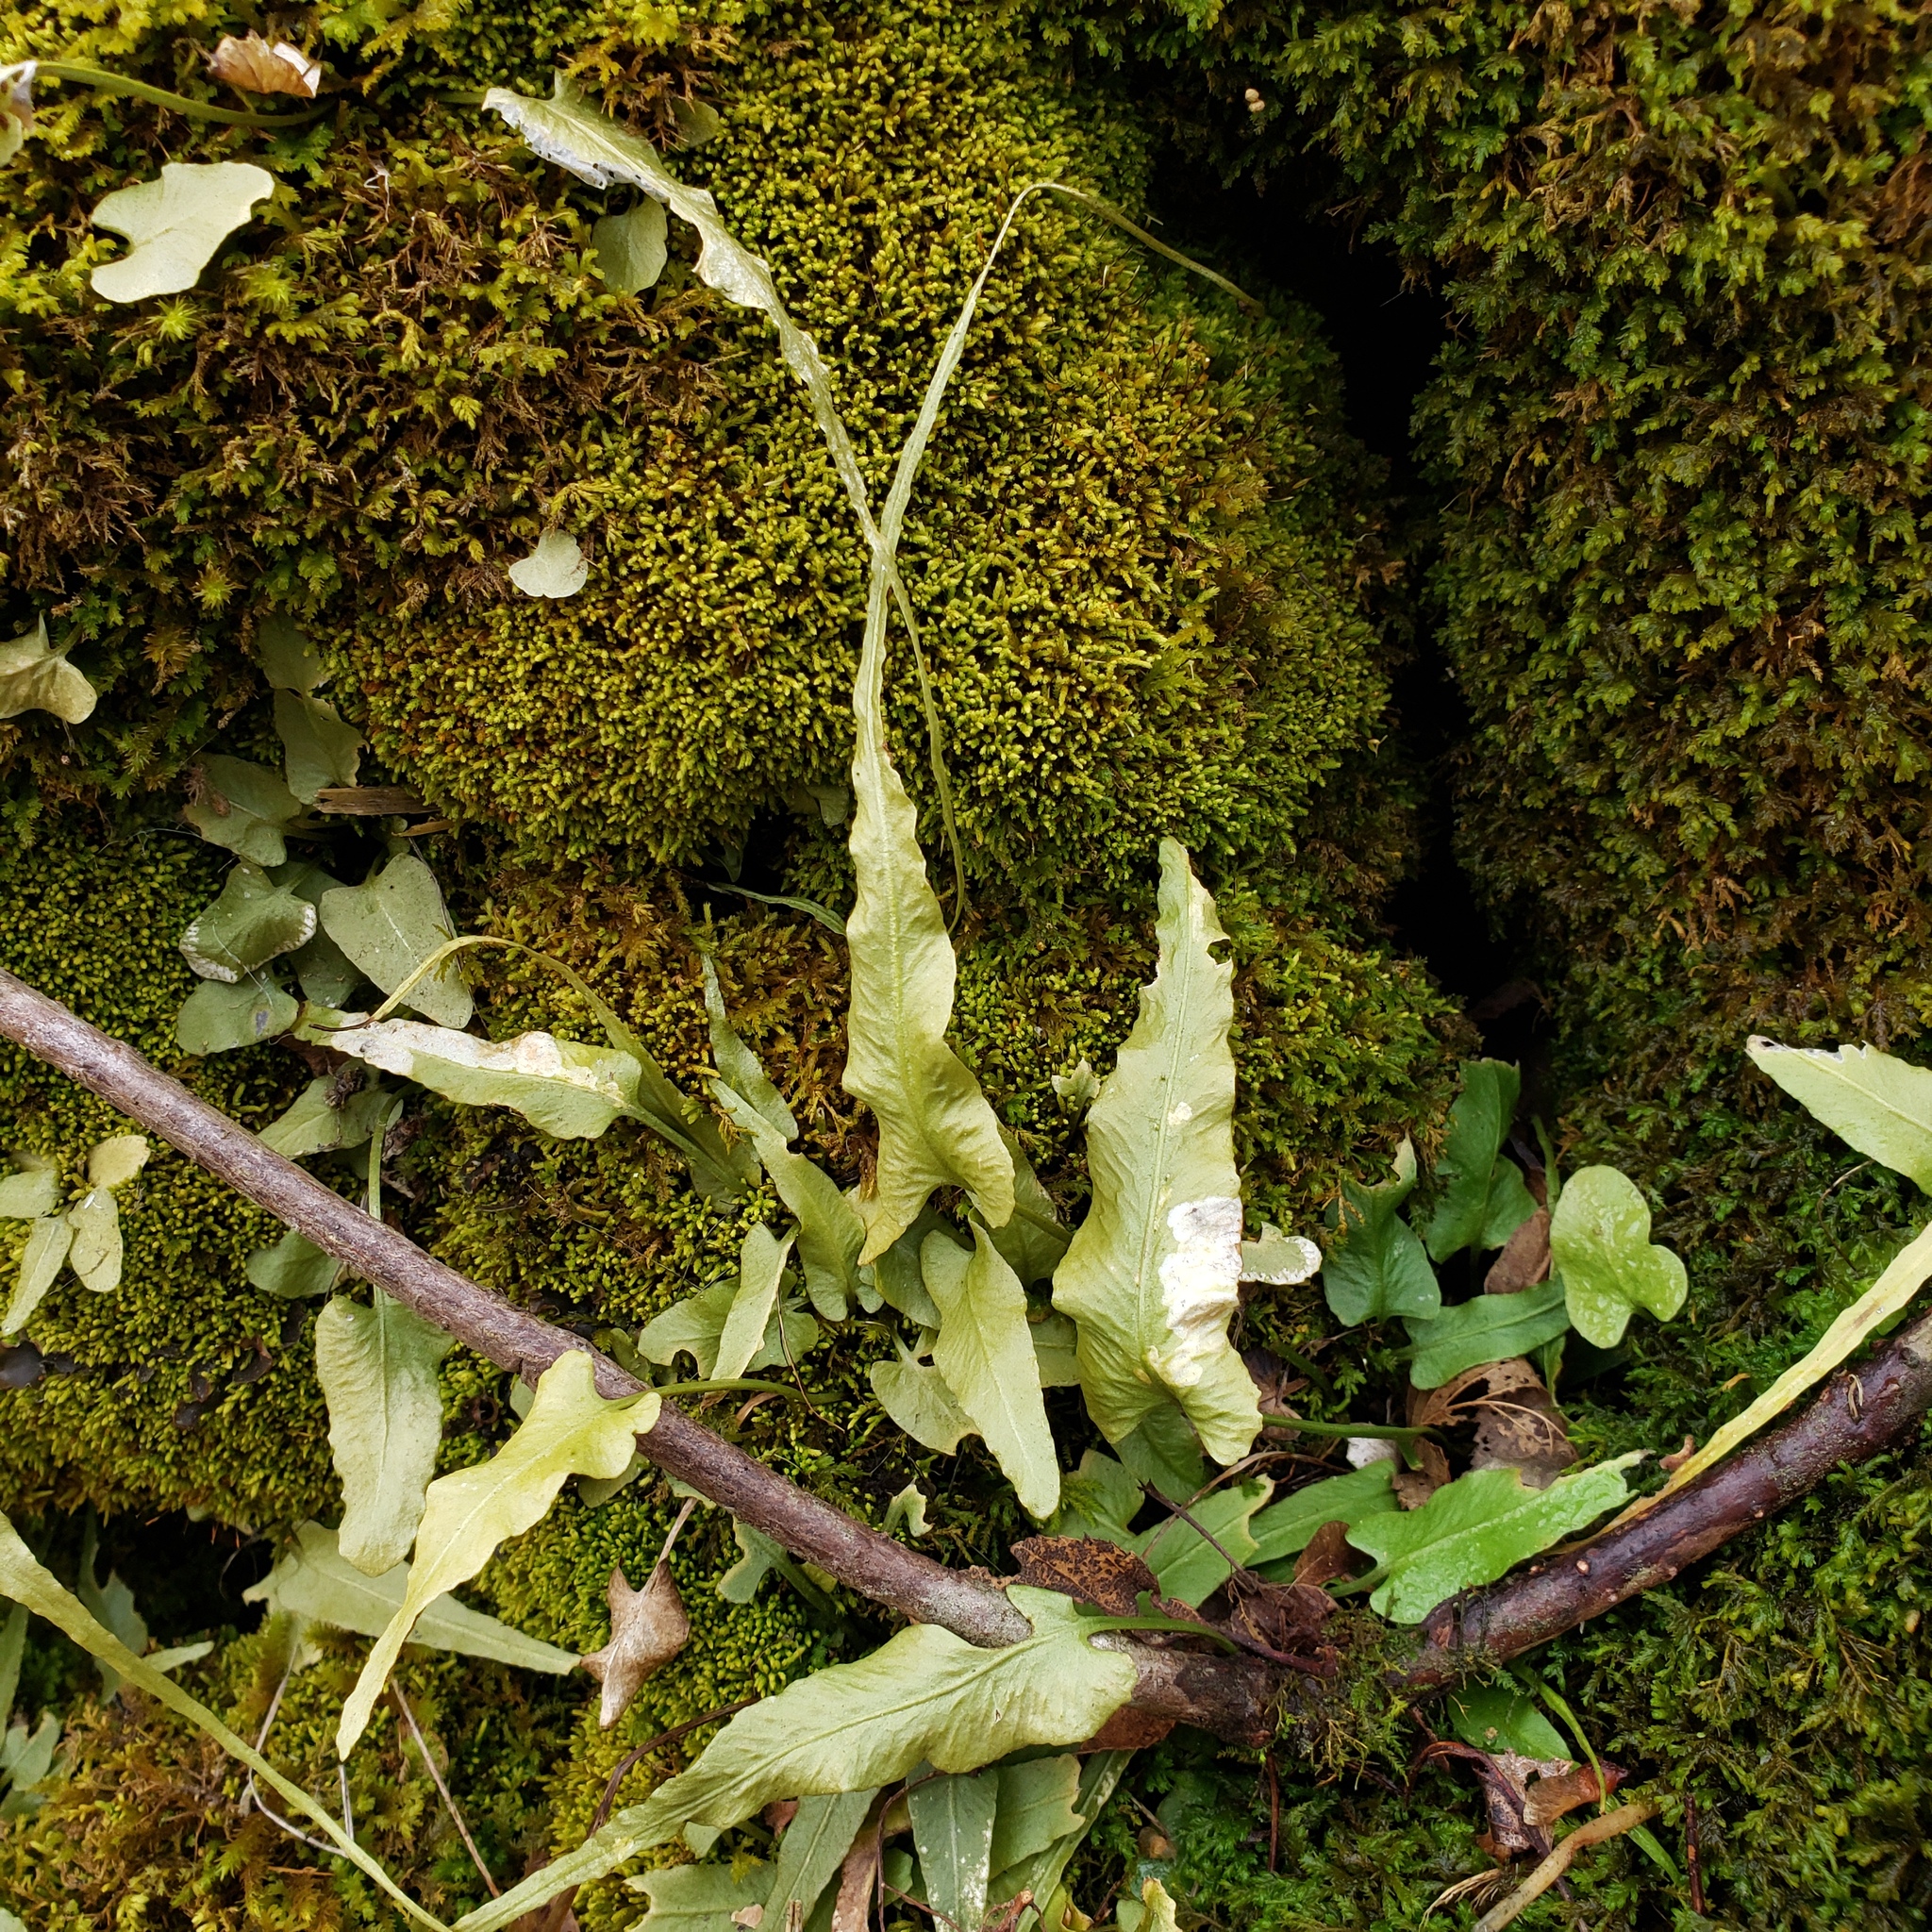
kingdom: Plantae
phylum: Tracheophyta
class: Polypodiopsida
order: Polypodiales
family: Aspleniaceae
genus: Asplenium
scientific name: Asplenium rhizophyllum
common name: Walking fern
